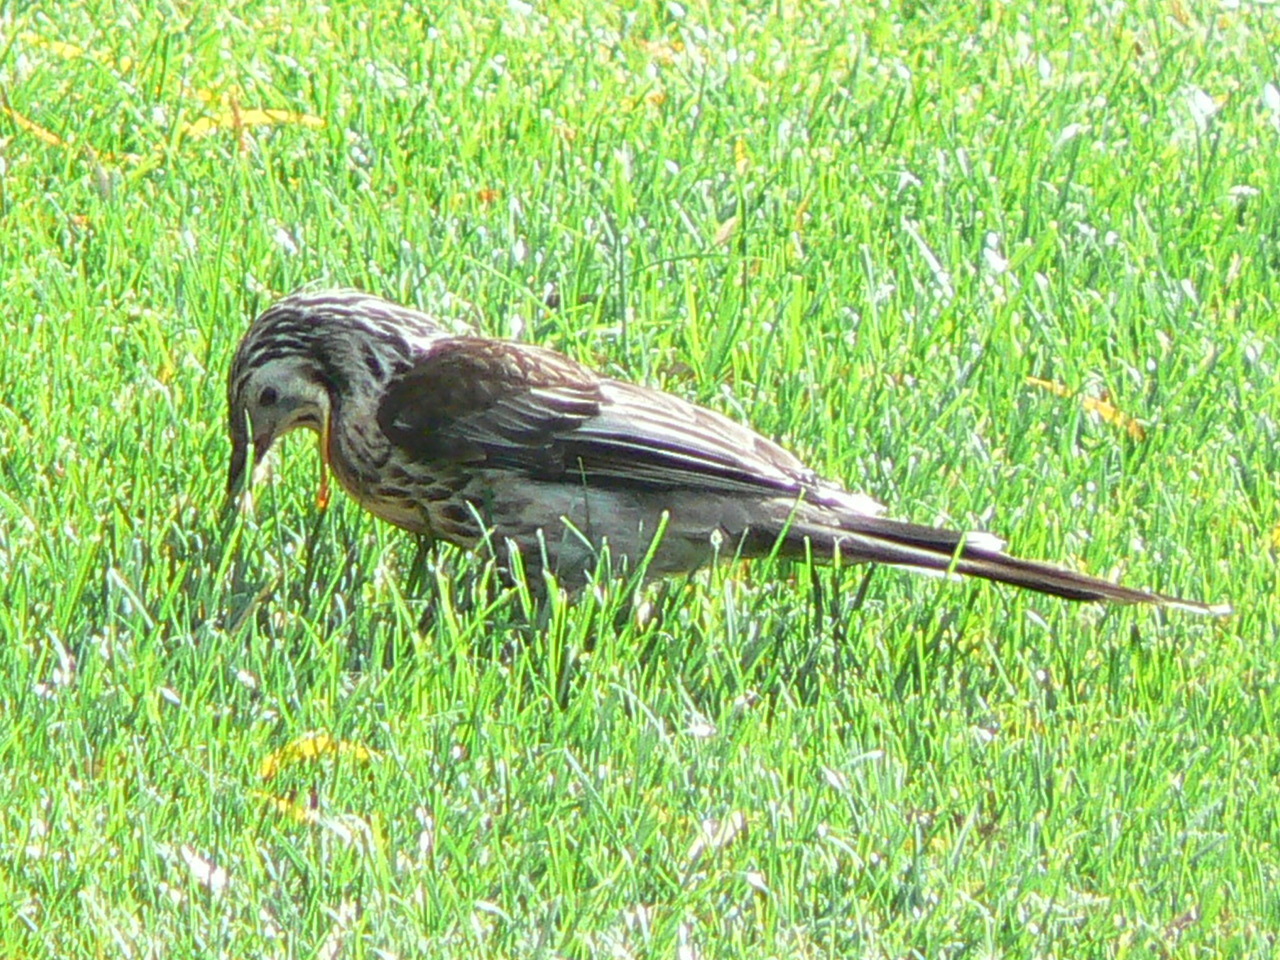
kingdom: Animalia
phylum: Chordata
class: Aves
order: Passeriformes
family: Meliphagidae
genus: Anthochaera
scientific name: Anthochaera paradoxa
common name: Yellow wattlebird
